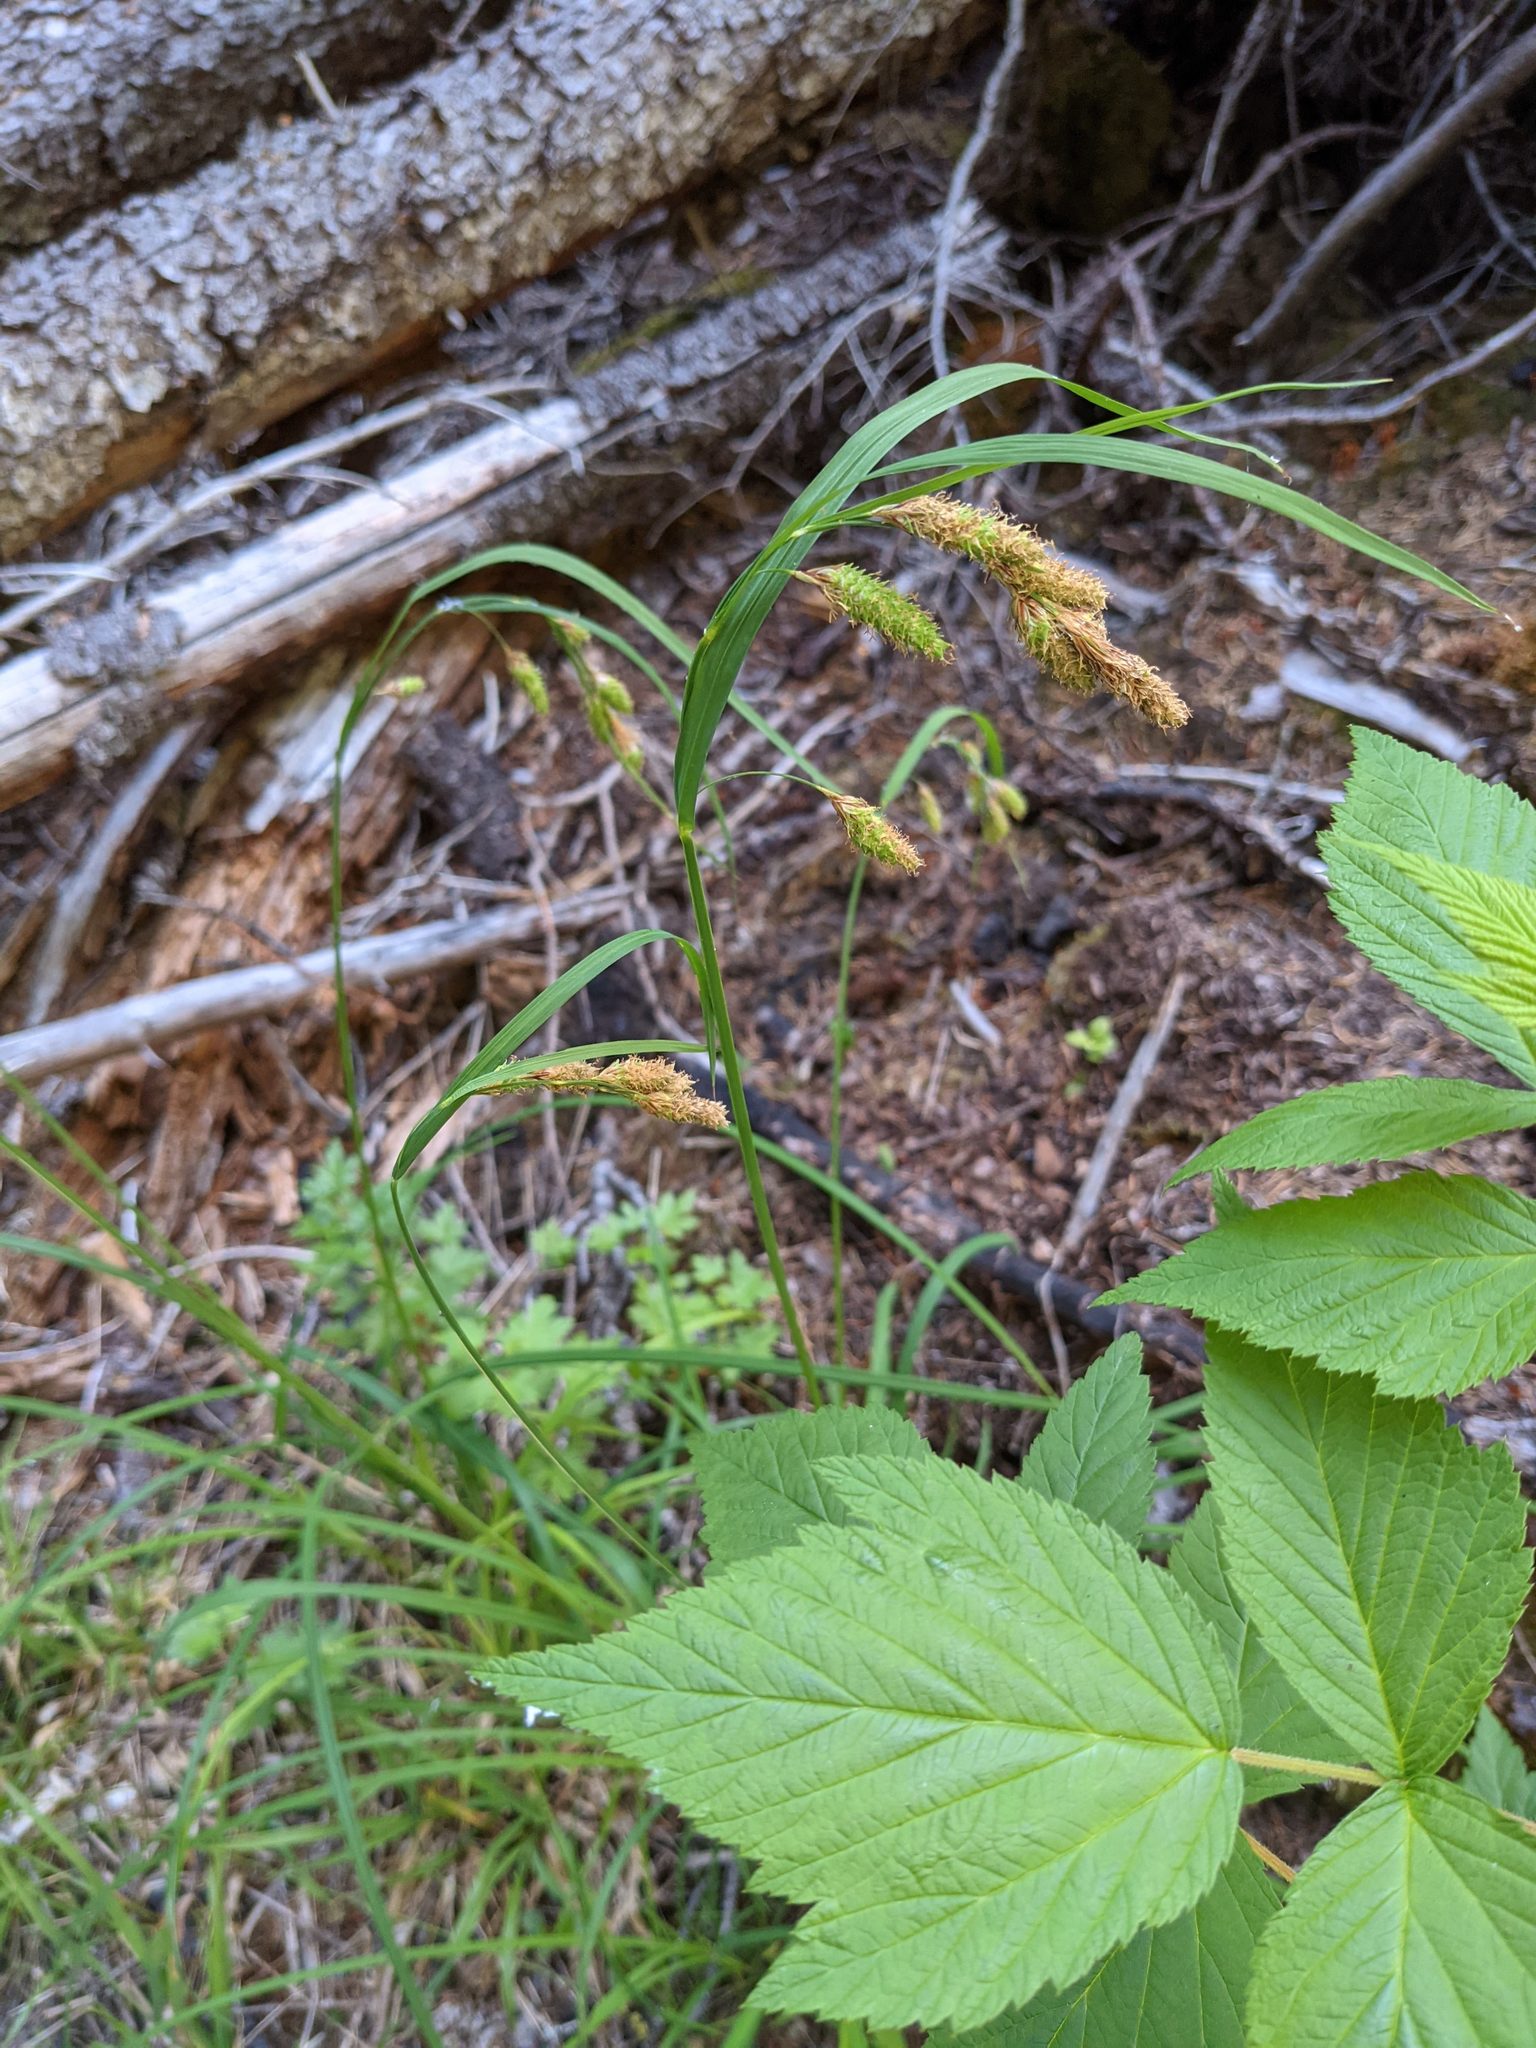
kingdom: Plantae
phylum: Tracheophyta
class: Liliopsida
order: Poales
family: Cyperaceae
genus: Carex
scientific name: Carex mertensii
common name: Mertens' sedge
